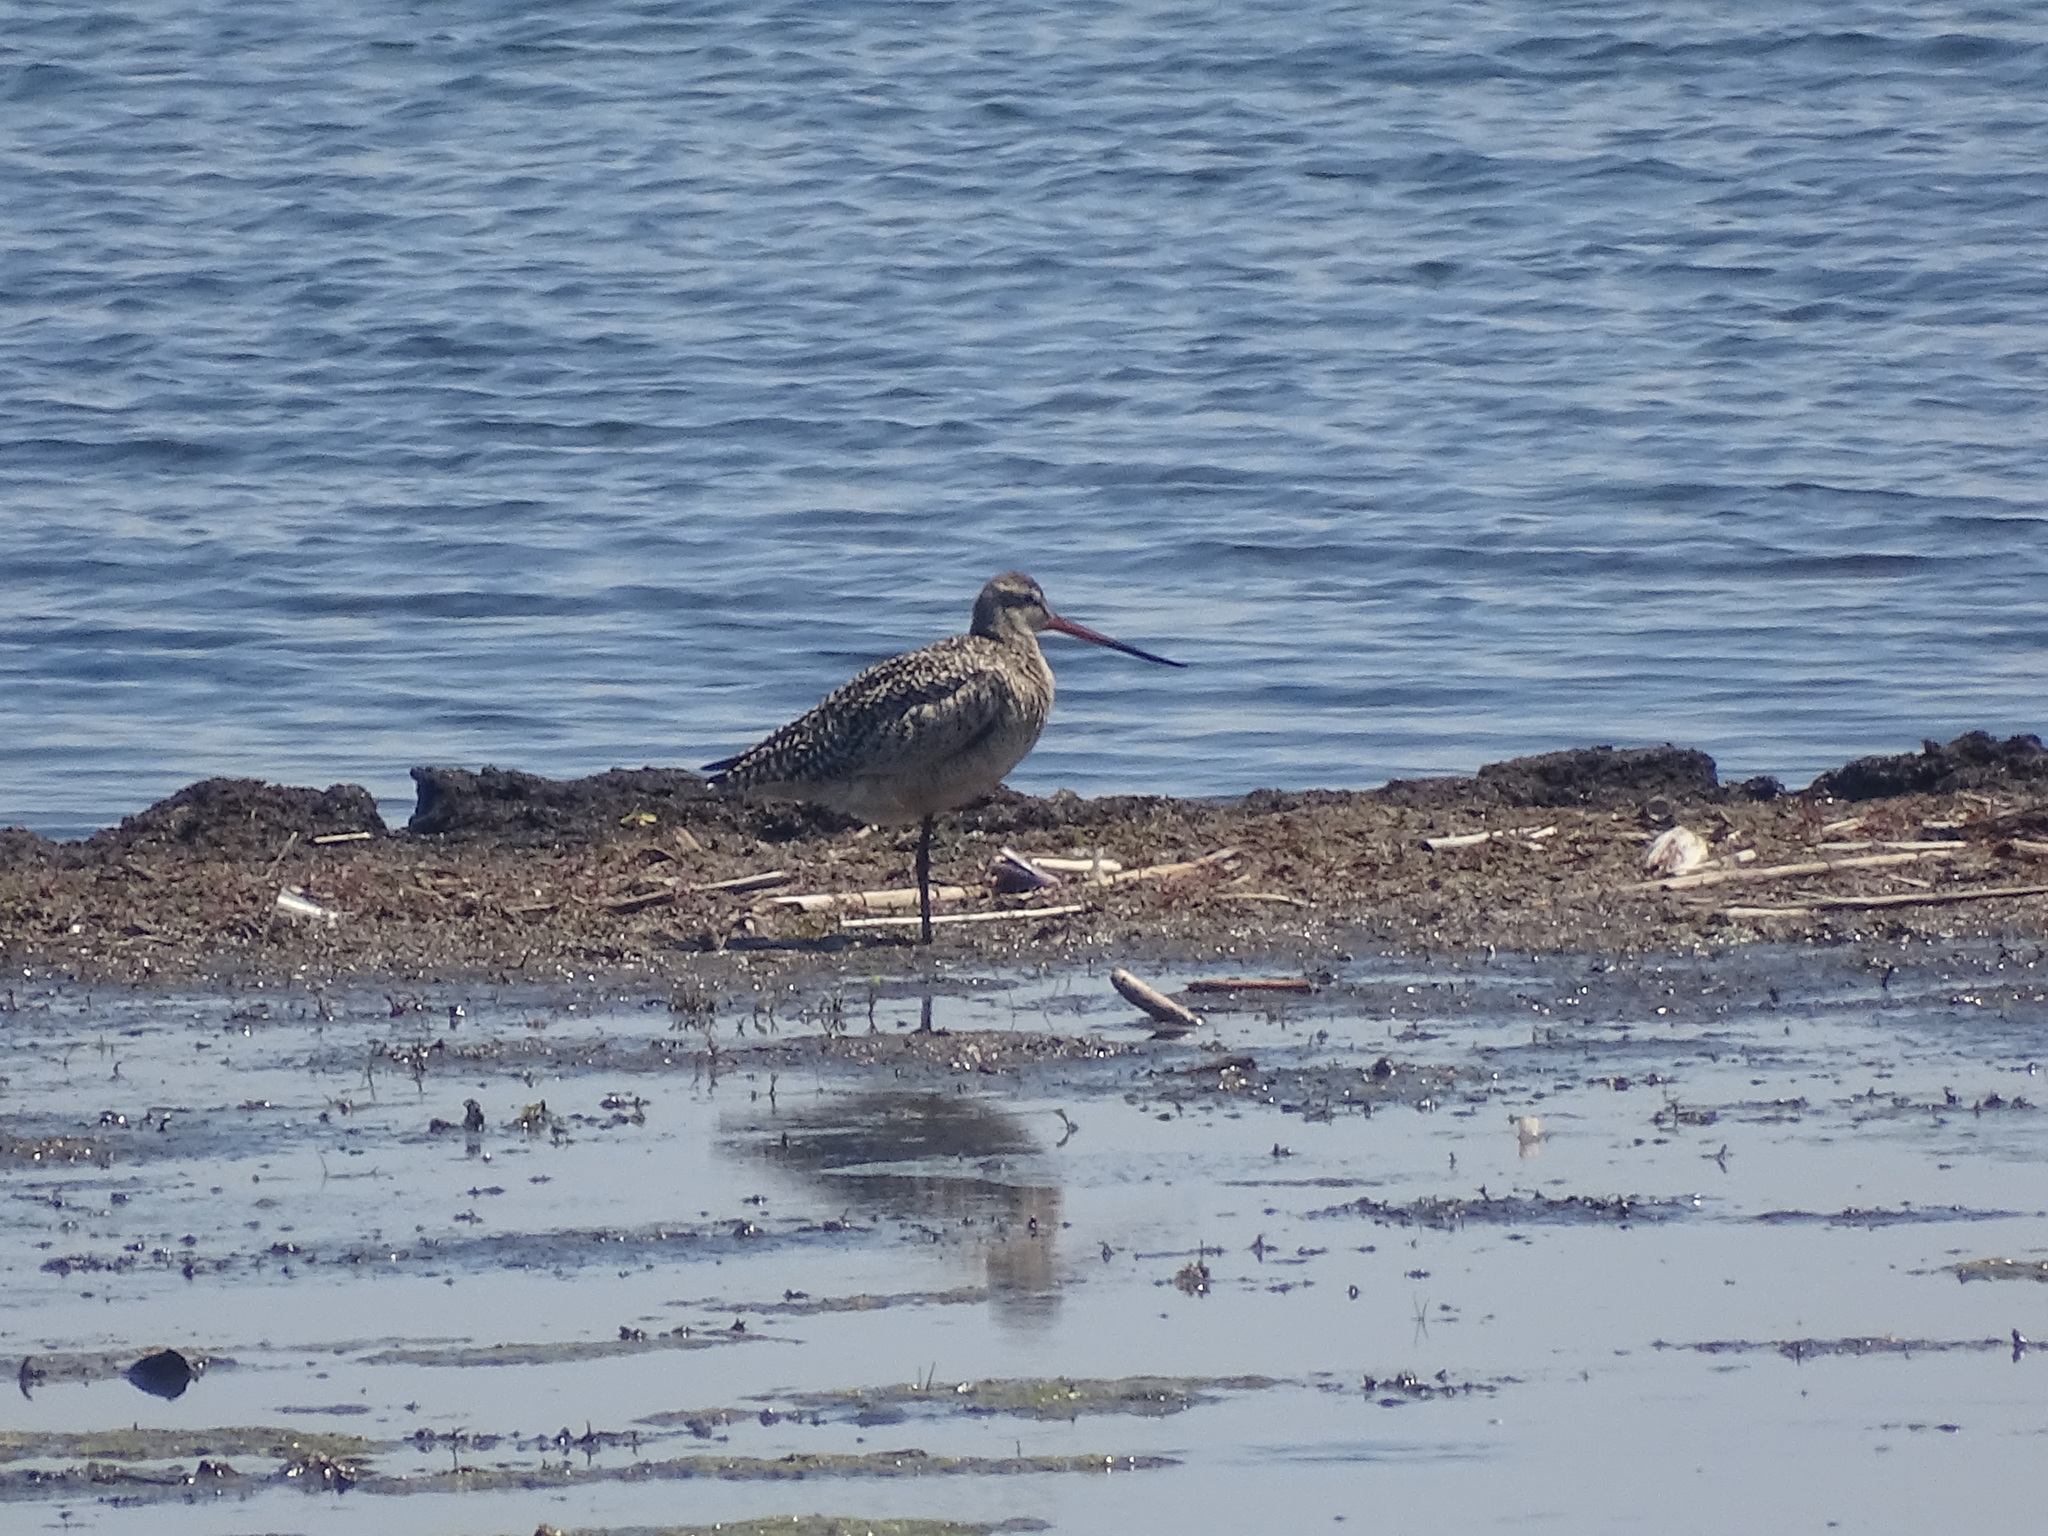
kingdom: Animalia
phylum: Chordata
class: Aves
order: Charadriiformes
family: Scolopacidae
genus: Limosa
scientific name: Limosa fedoa
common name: Marbled godwit
